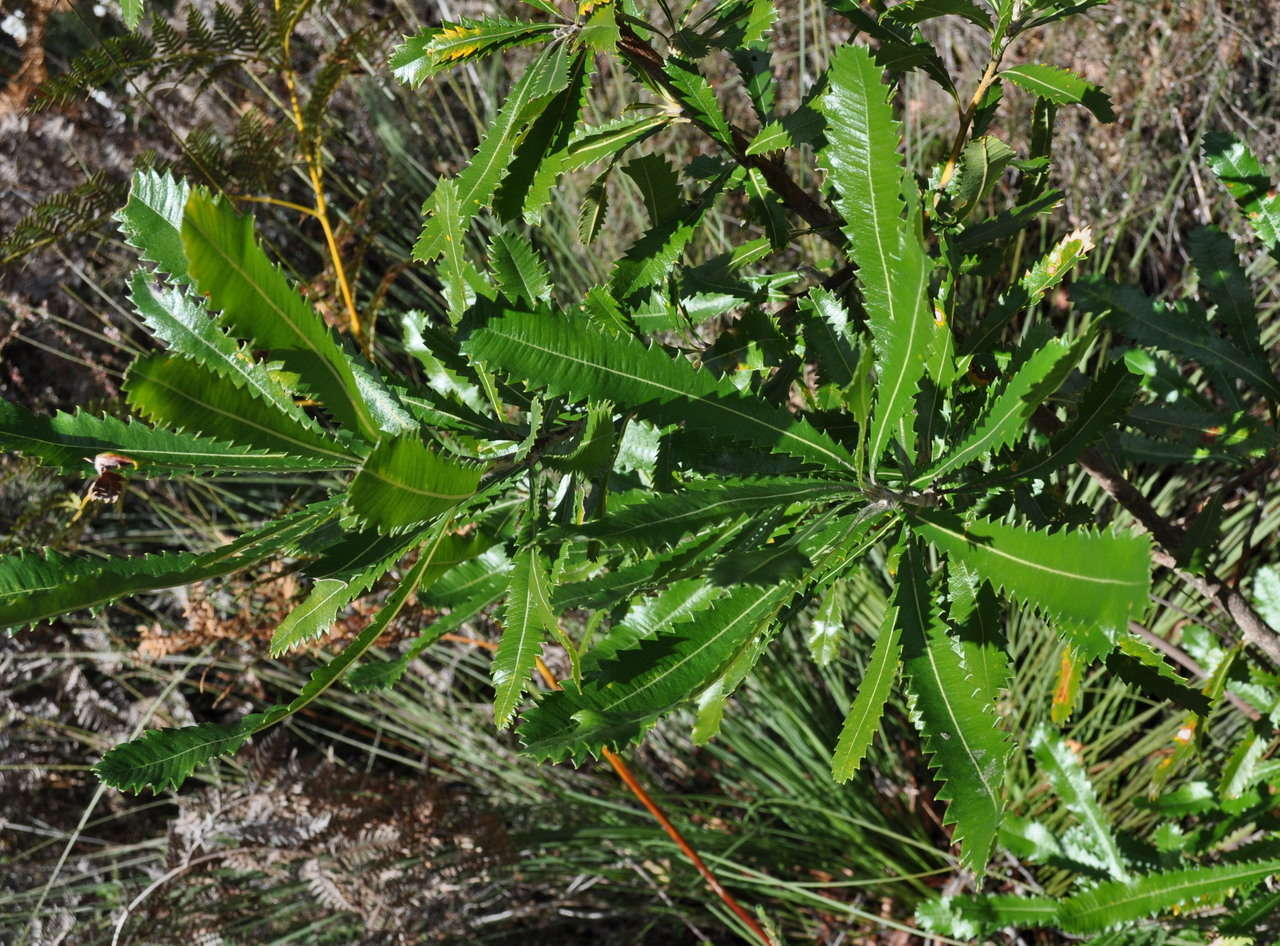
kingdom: Plantae
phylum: Tracheophyta
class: Magnoliopsida
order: Proteales
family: Proteaceae
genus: Banksia
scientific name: Banksia serrata
